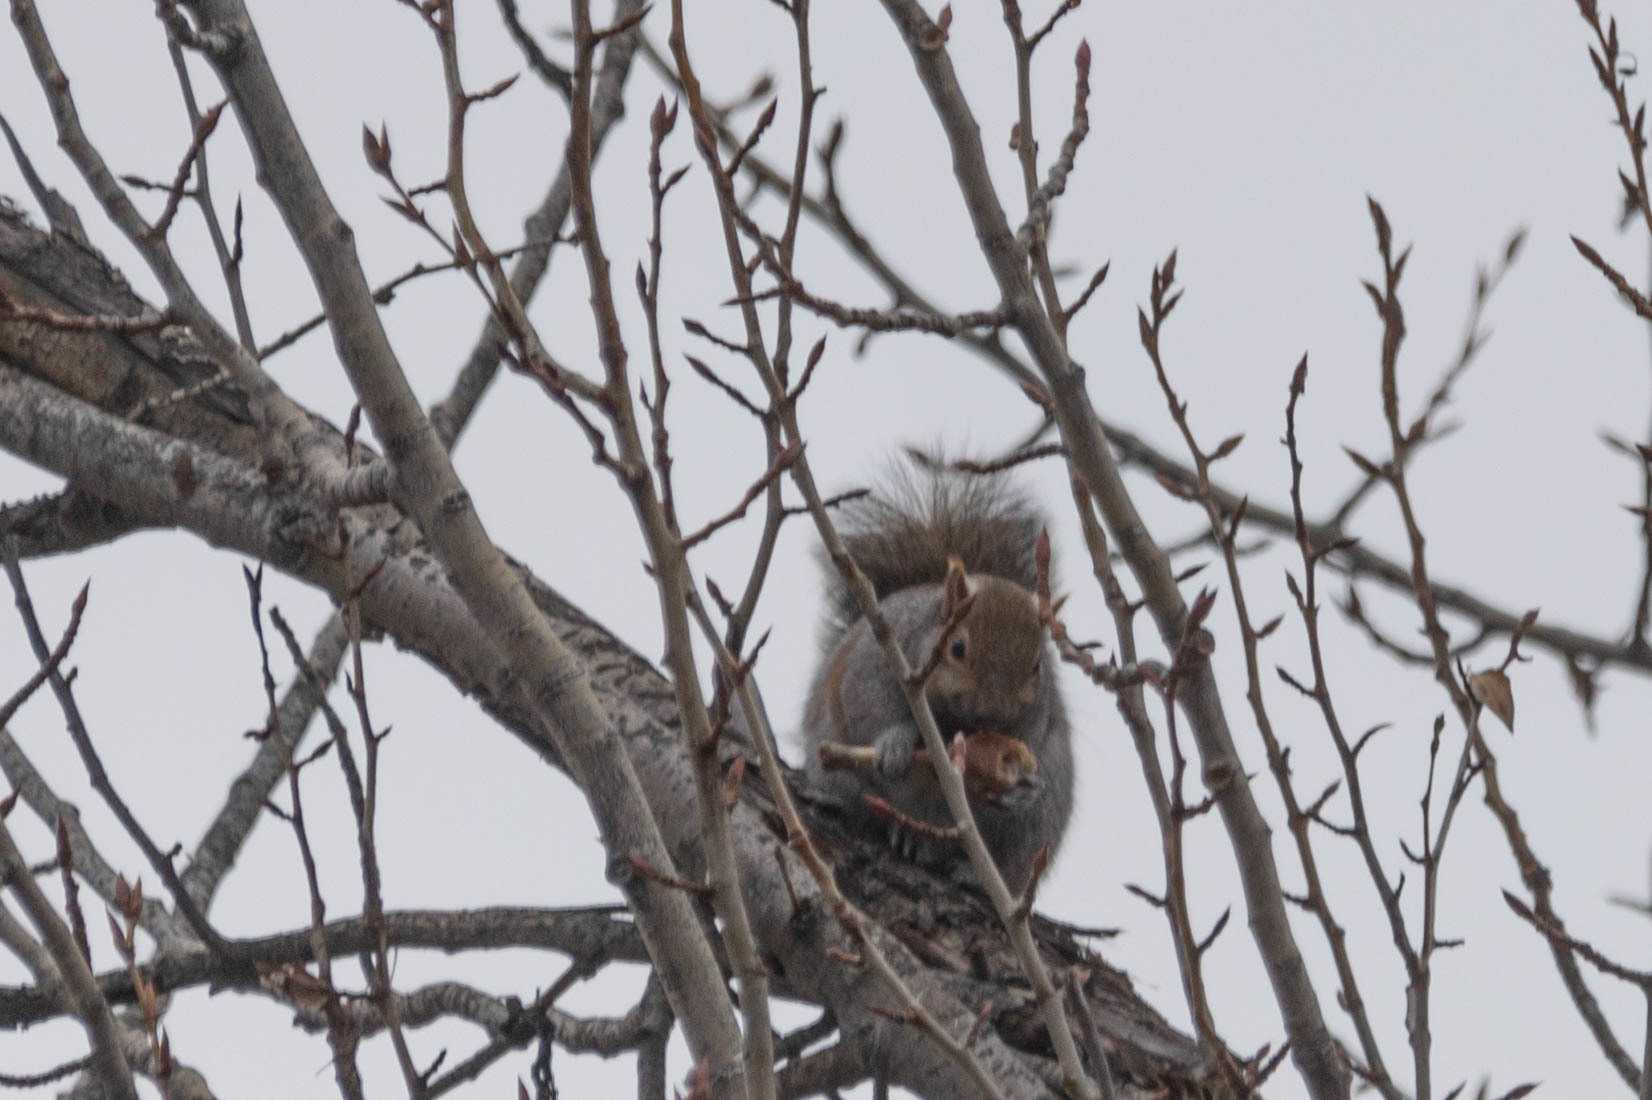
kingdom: Animalia
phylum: Chordata
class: Mammalia
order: Rodentia
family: Sciuridae
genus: Sciurus
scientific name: Sciurus carolinensis
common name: Eastern gray squirrel
